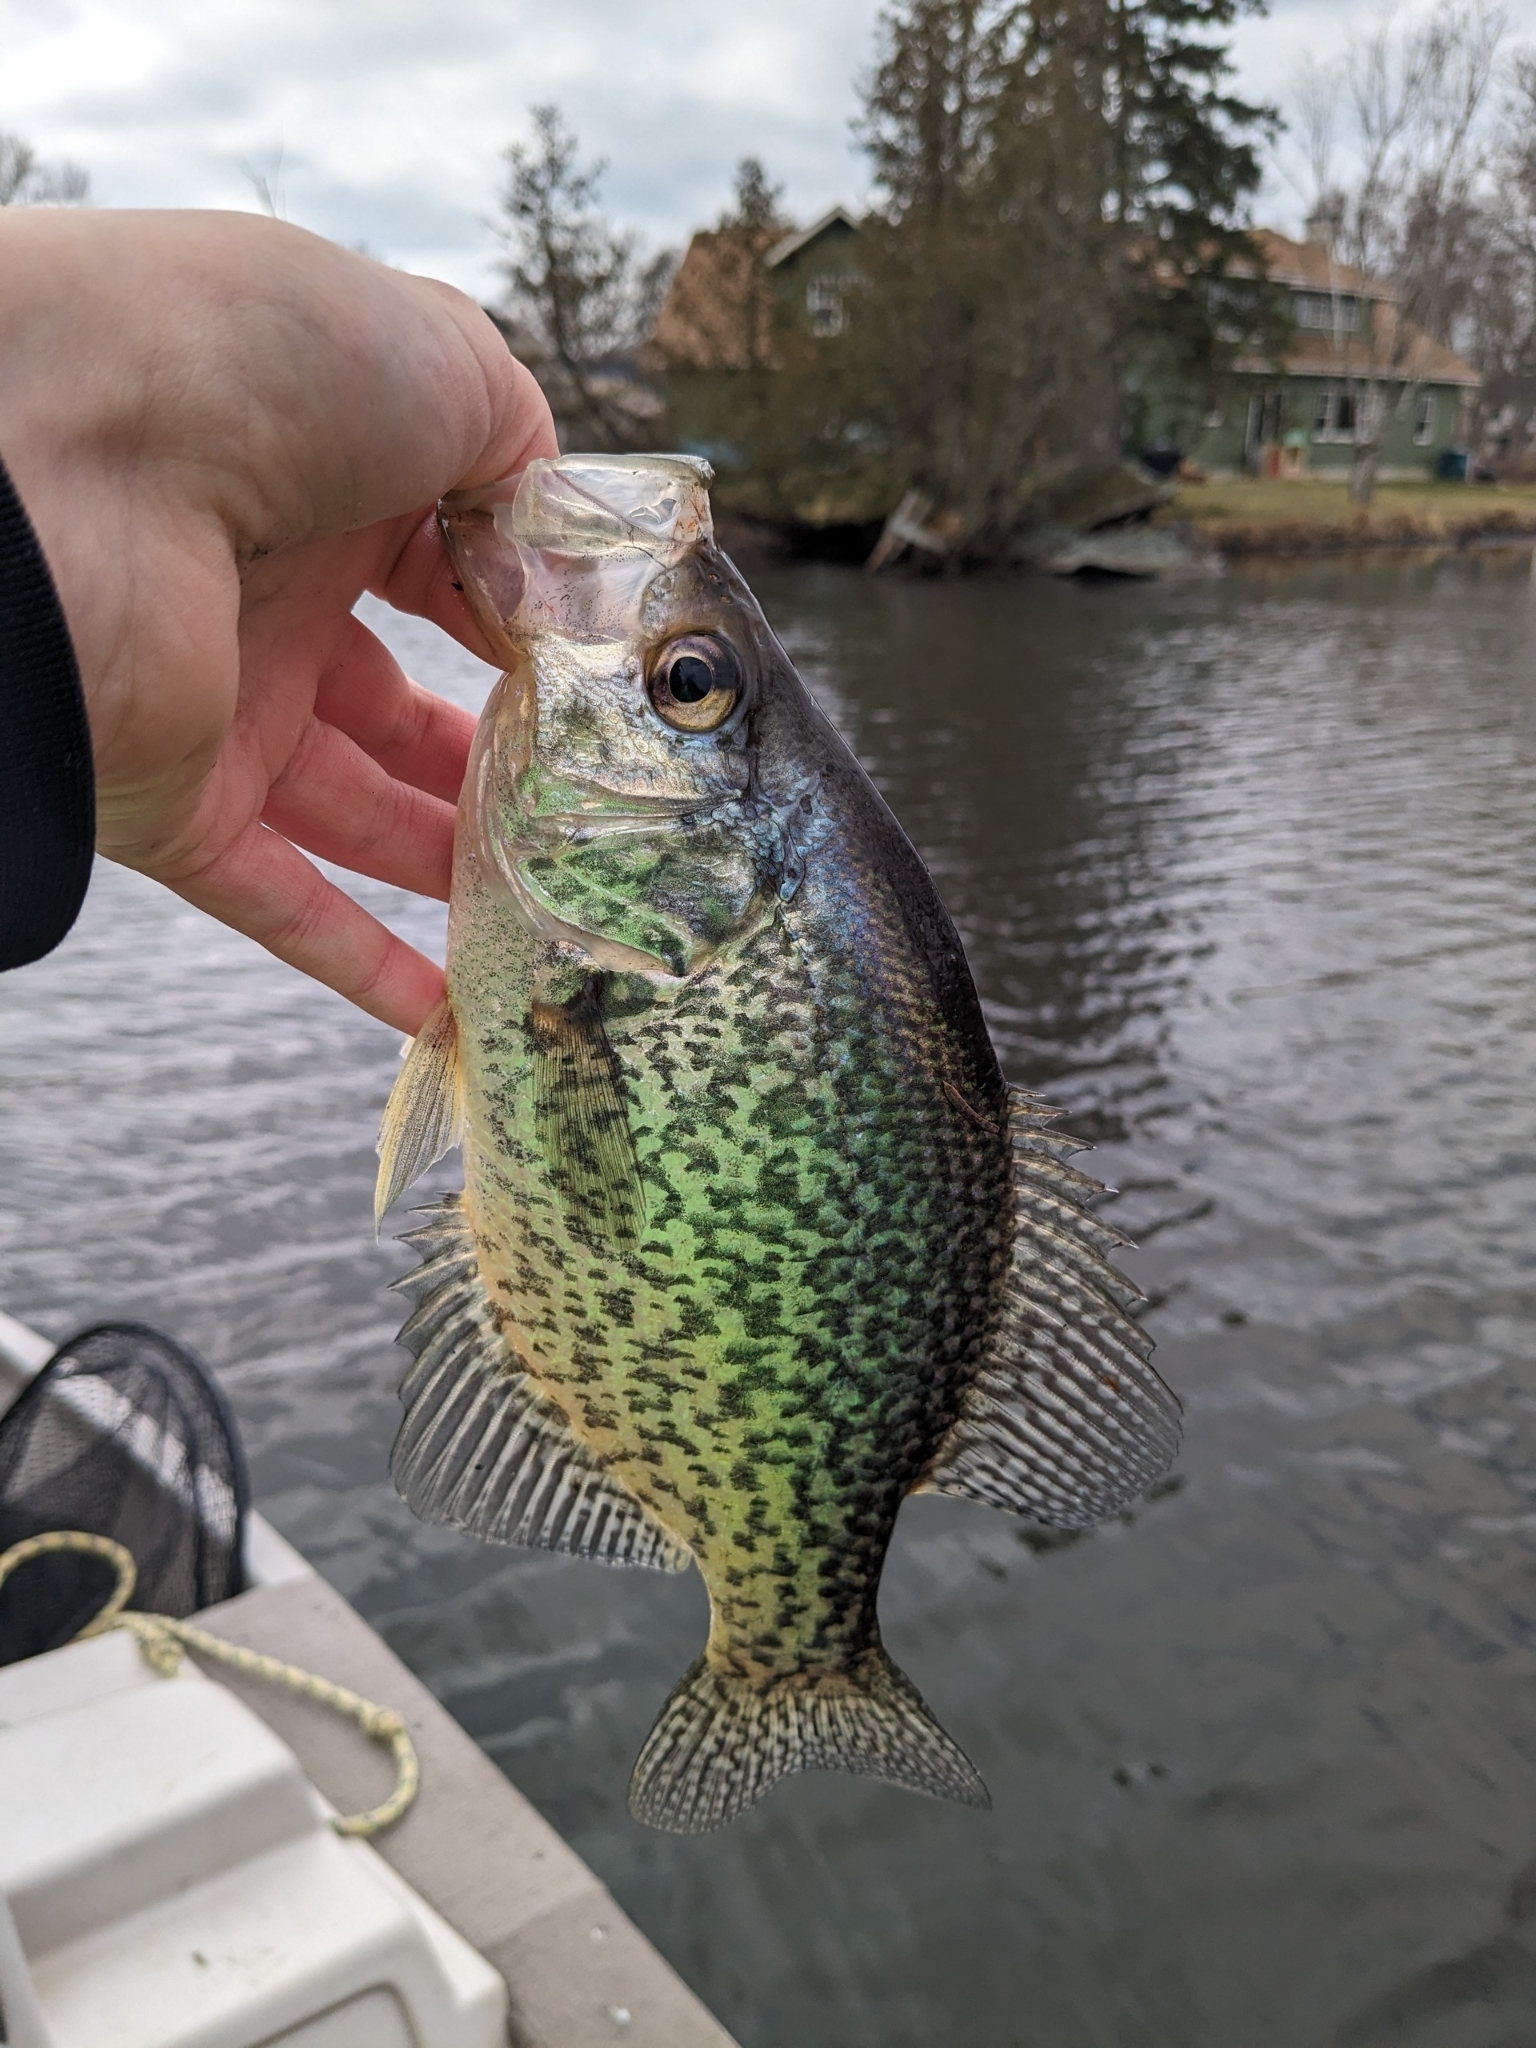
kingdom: Animalia
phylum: Chordata
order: Perciformes
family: Centrarchidae
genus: Pomoxis
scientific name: Pomoxis nigromaculatus
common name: Black crappie
